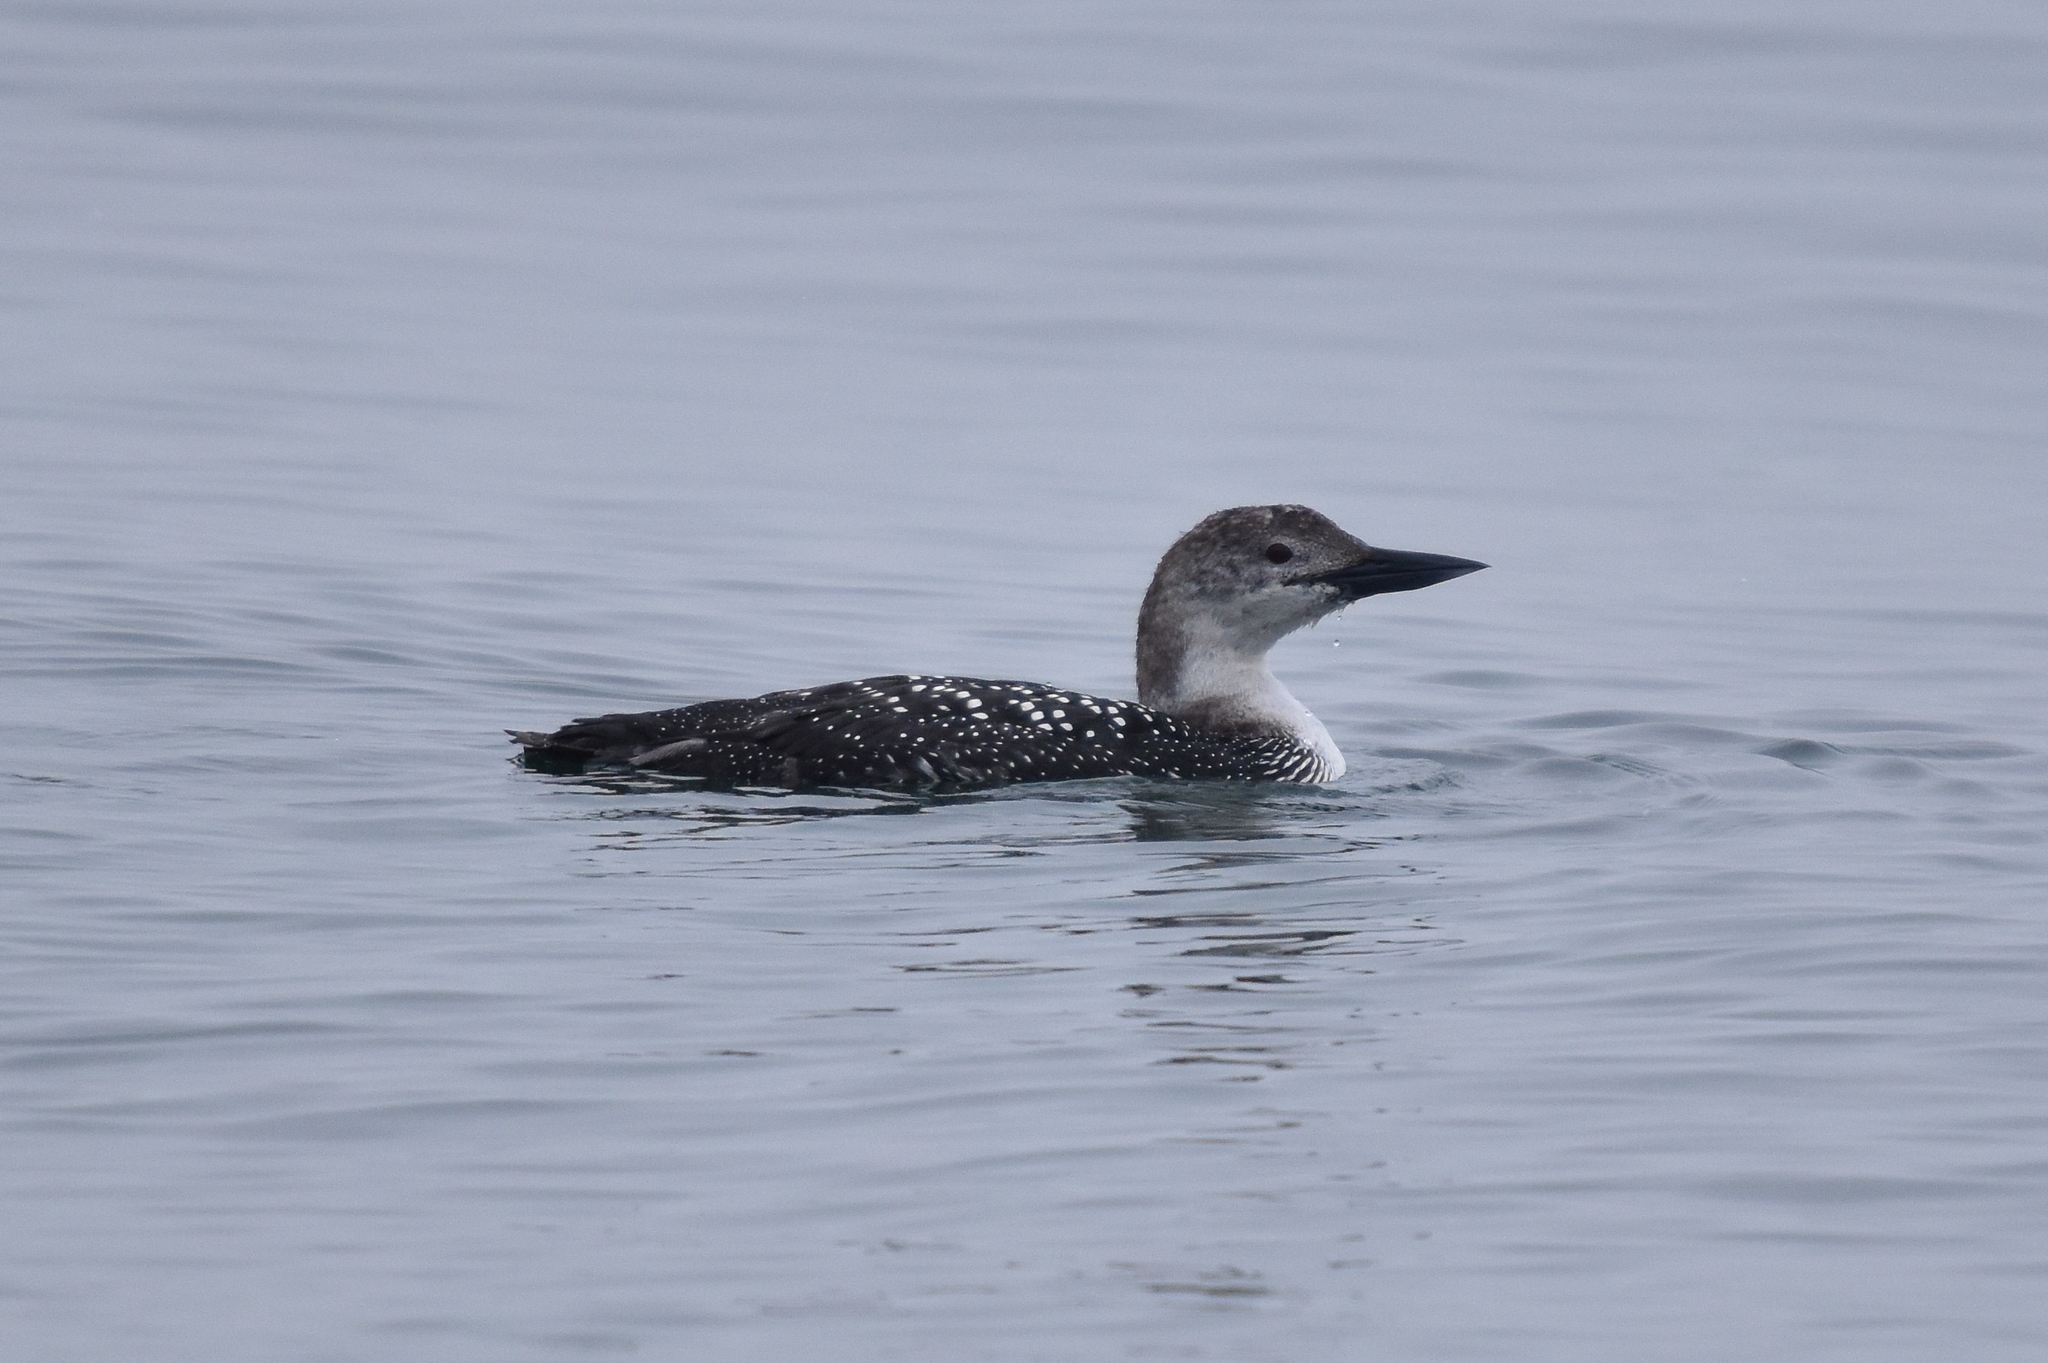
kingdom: Animalia
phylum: Chordata
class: Aves
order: Gaviiformes
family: Gaviidae
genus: Gavia
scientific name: Gavia immer
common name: Common loon
